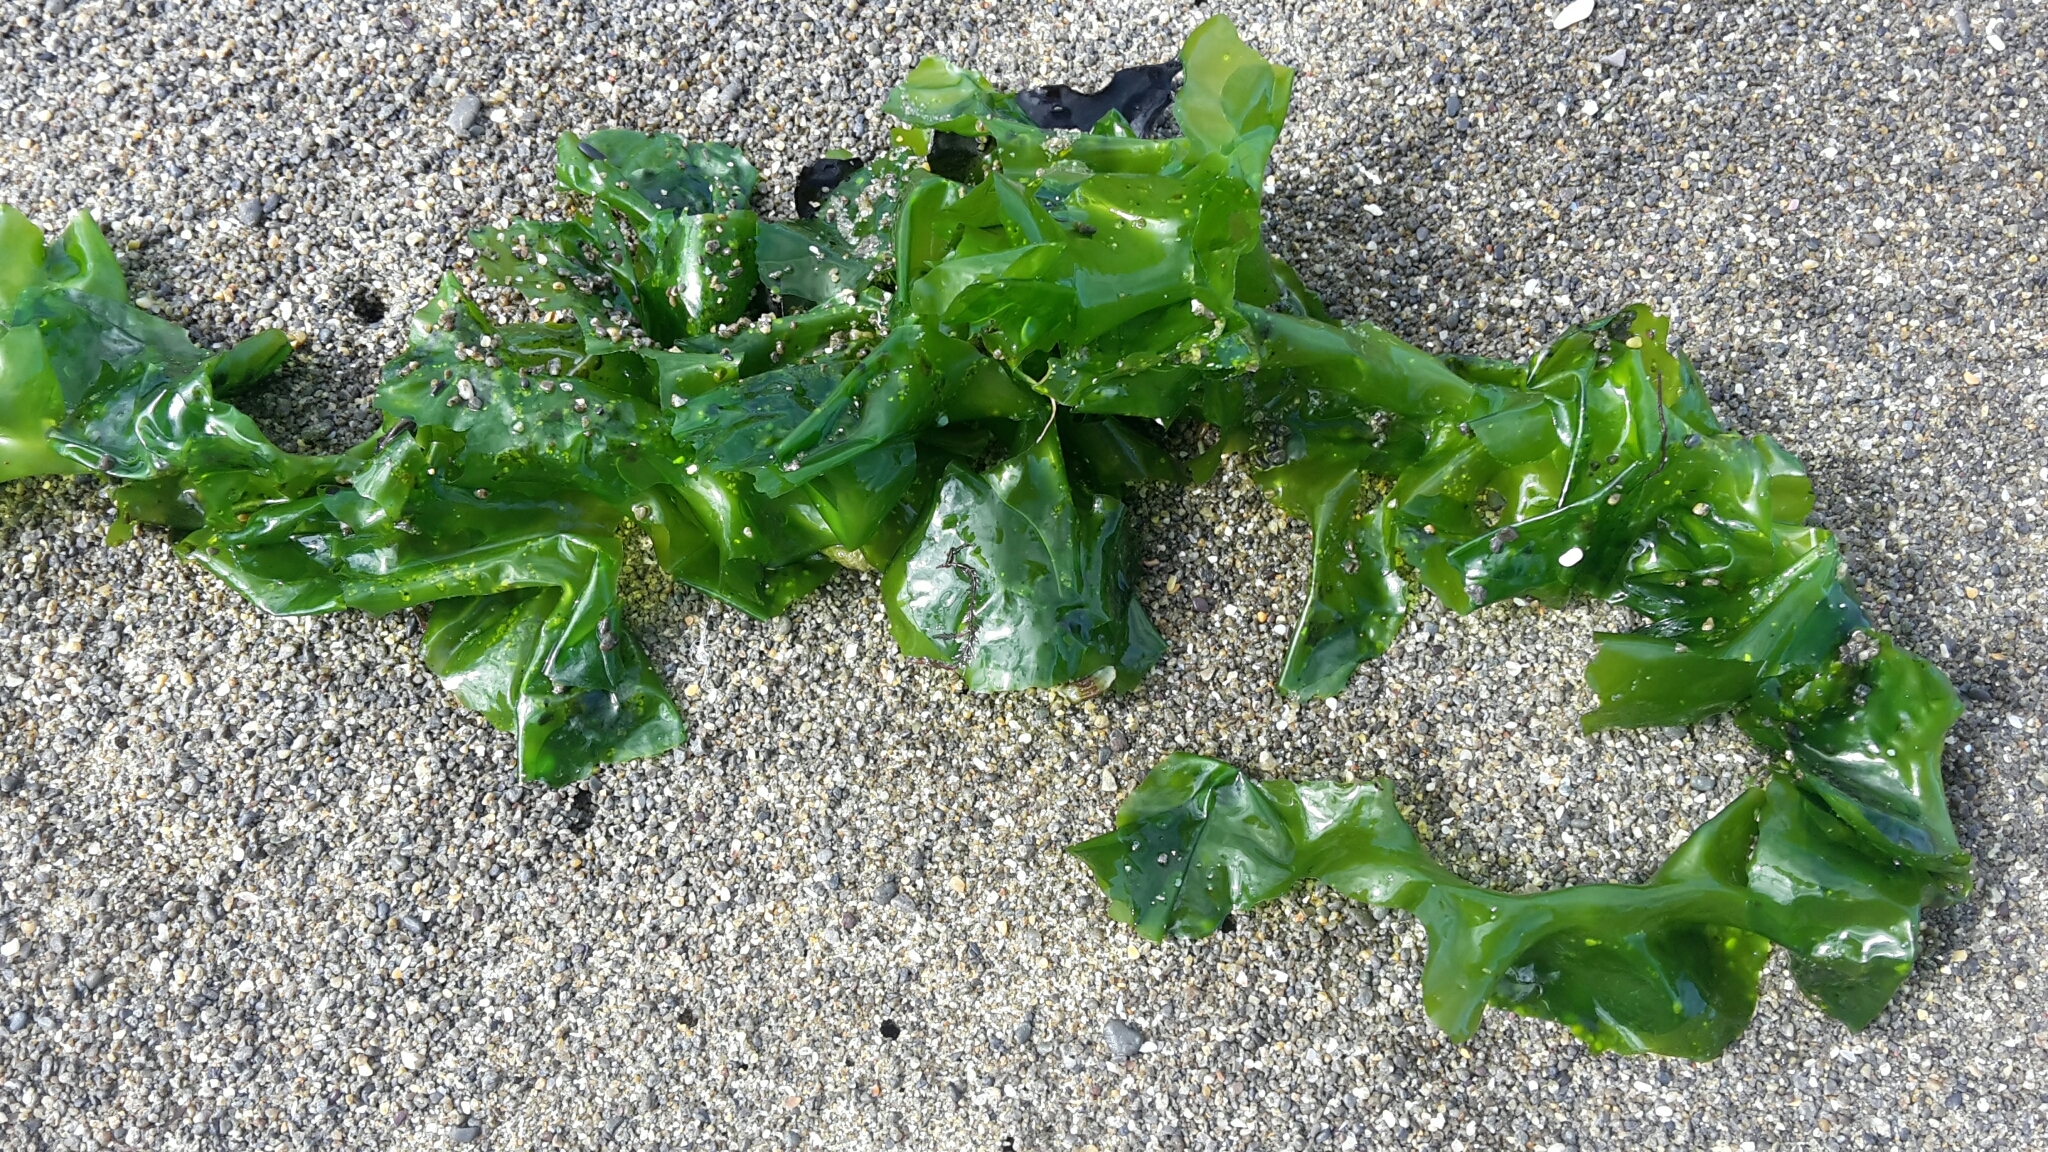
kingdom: Plantae
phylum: Chlorophyta
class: Ulvophyceae
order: Ulvales
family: Ulvaceae
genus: Ulva
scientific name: Ulva
